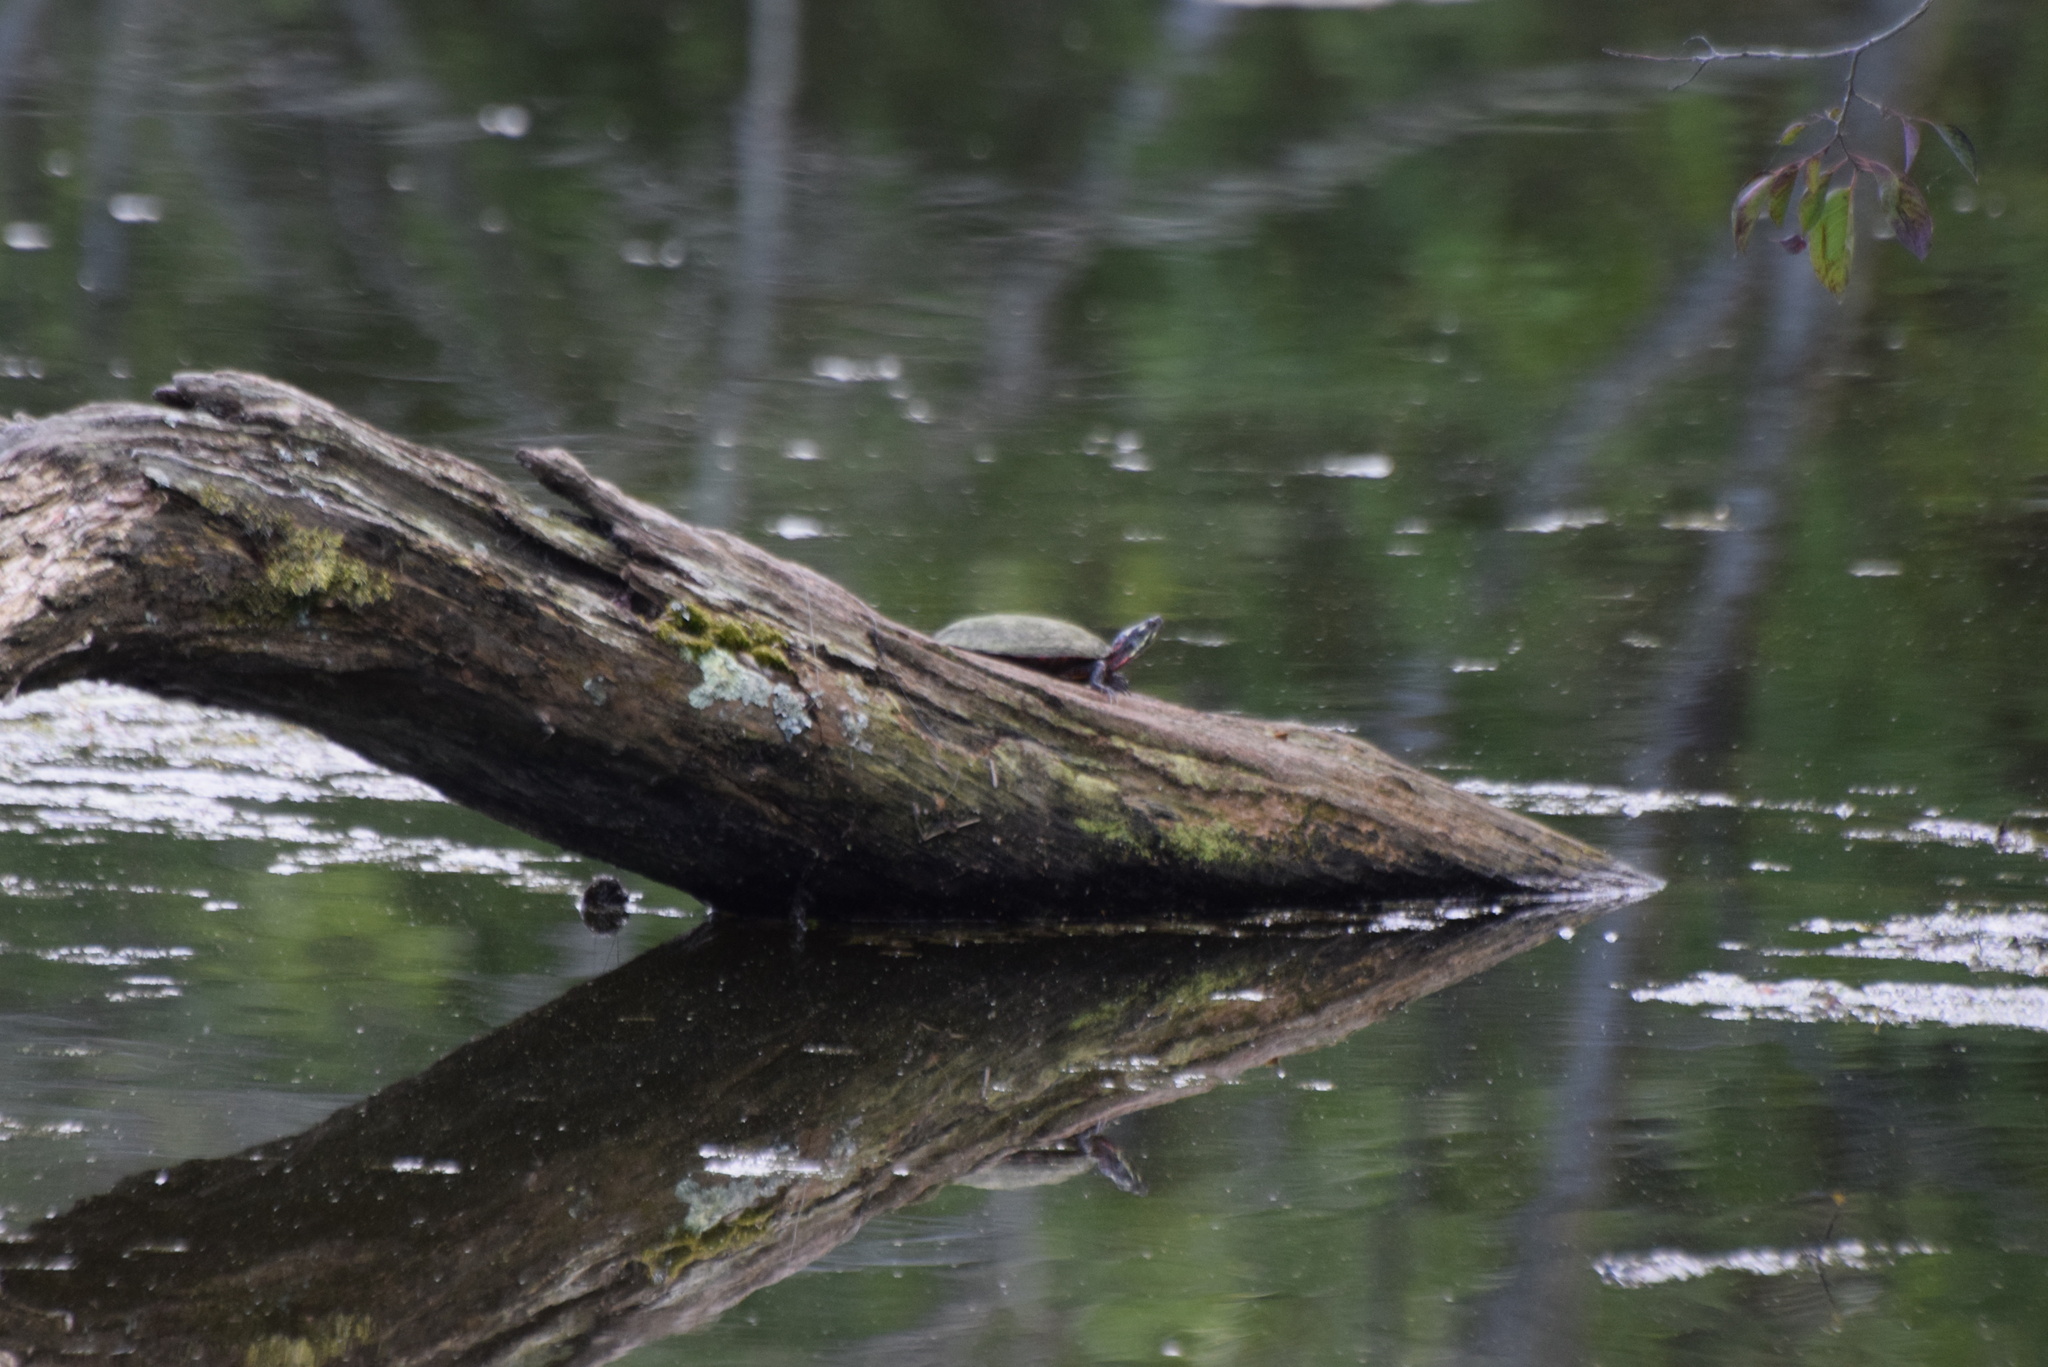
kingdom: Animalia
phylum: Chordata
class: Testudines
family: Emydidae
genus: Chrysemys
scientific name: Chrysemys picta
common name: Painted turtle
